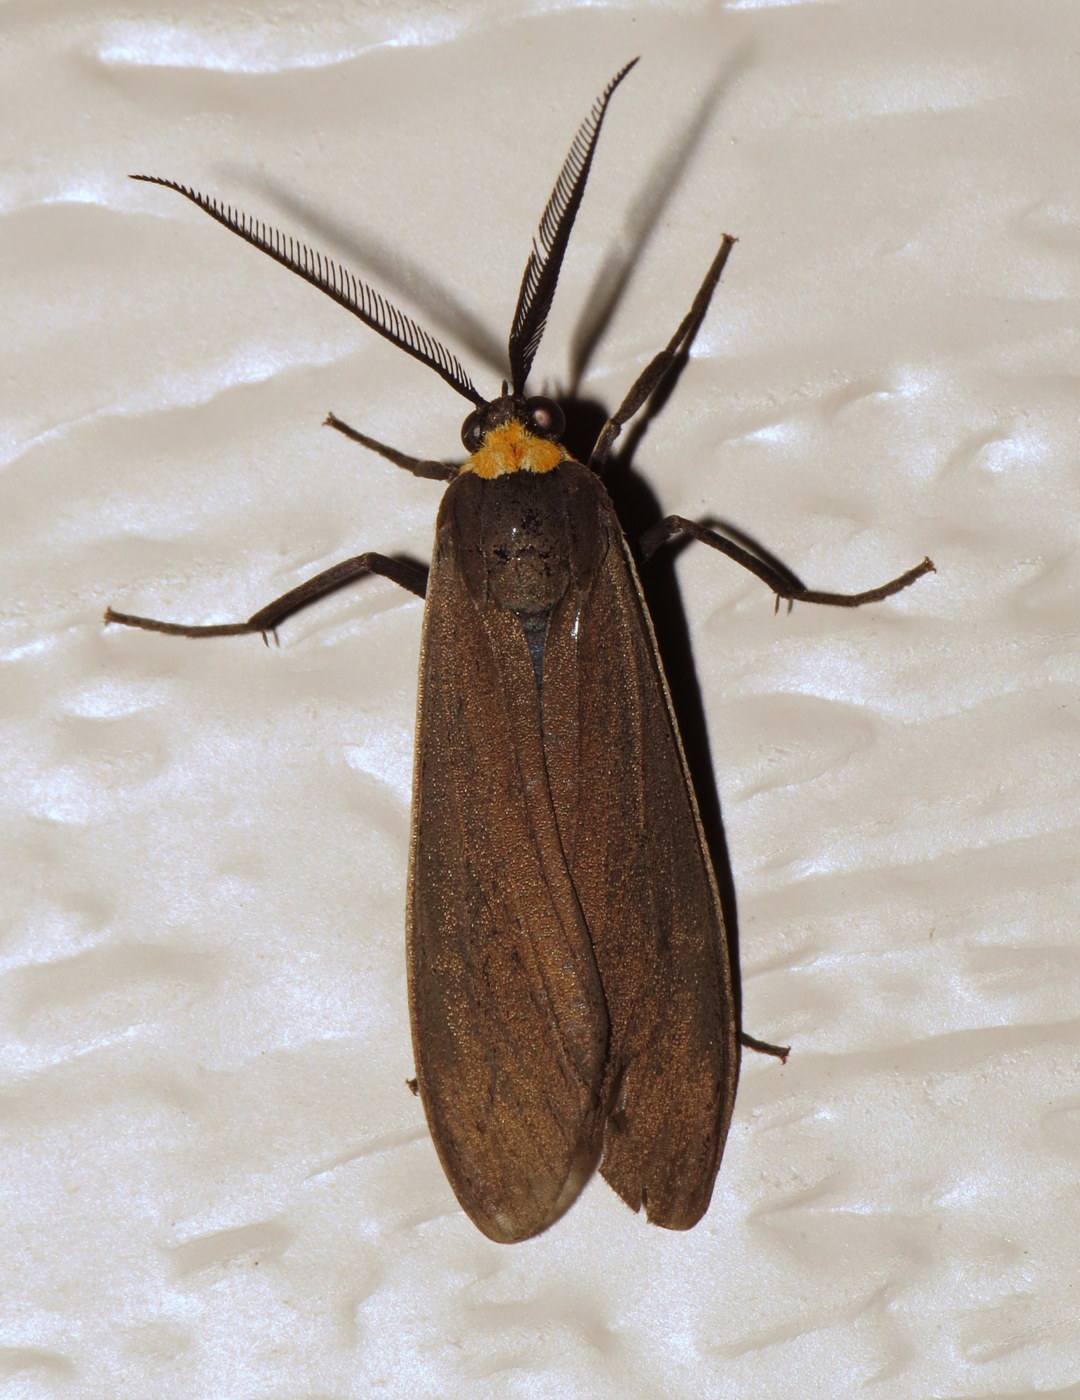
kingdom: Animalia
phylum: Arthropoda
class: Insecta
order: Lepidoptera
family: Erebidae
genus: Cisseps
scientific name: Cisseps fulvicollis
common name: Yellow-collared scape moth
